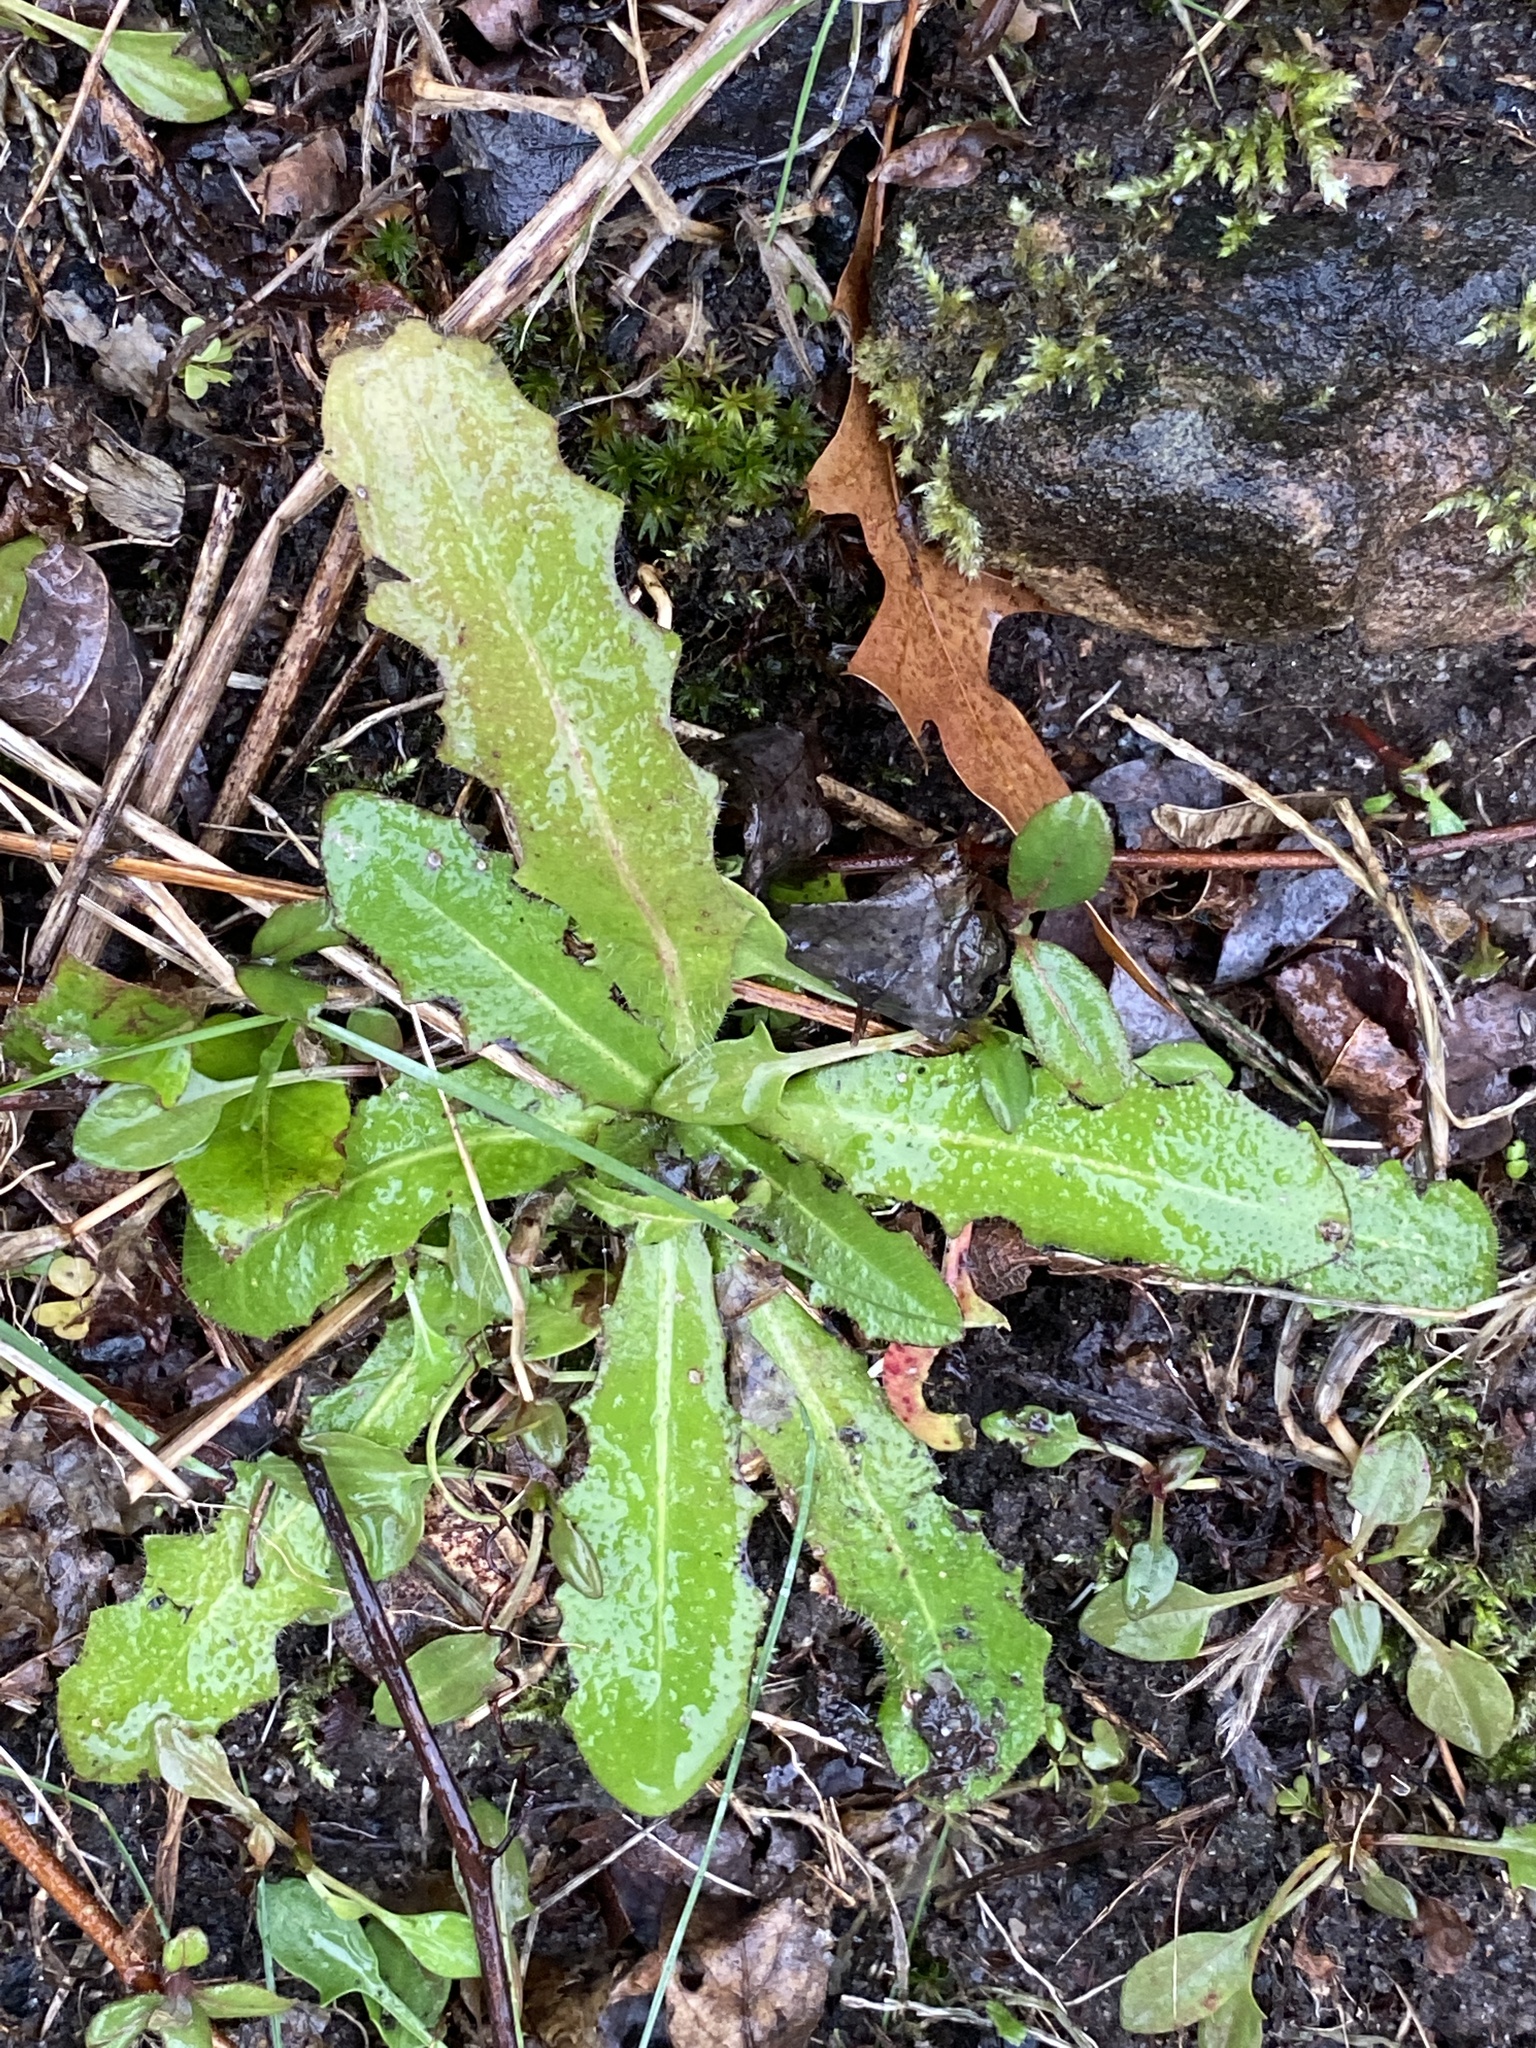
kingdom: Plantae
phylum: Tracheophyta
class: Magnoliopsida
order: Asterales
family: Asteraceae
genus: Hypochaeris
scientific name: Hypochaeris radicata
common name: Flatweed
